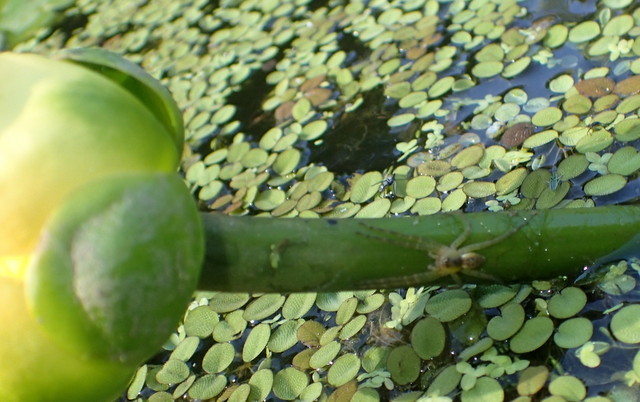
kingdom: Animalia
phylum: Arthropoda
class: Arachnida
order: Araneae
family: Pisauridae
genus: Dolomedes
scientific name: Dolomedes triton
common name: Six-spotted fishing spider
